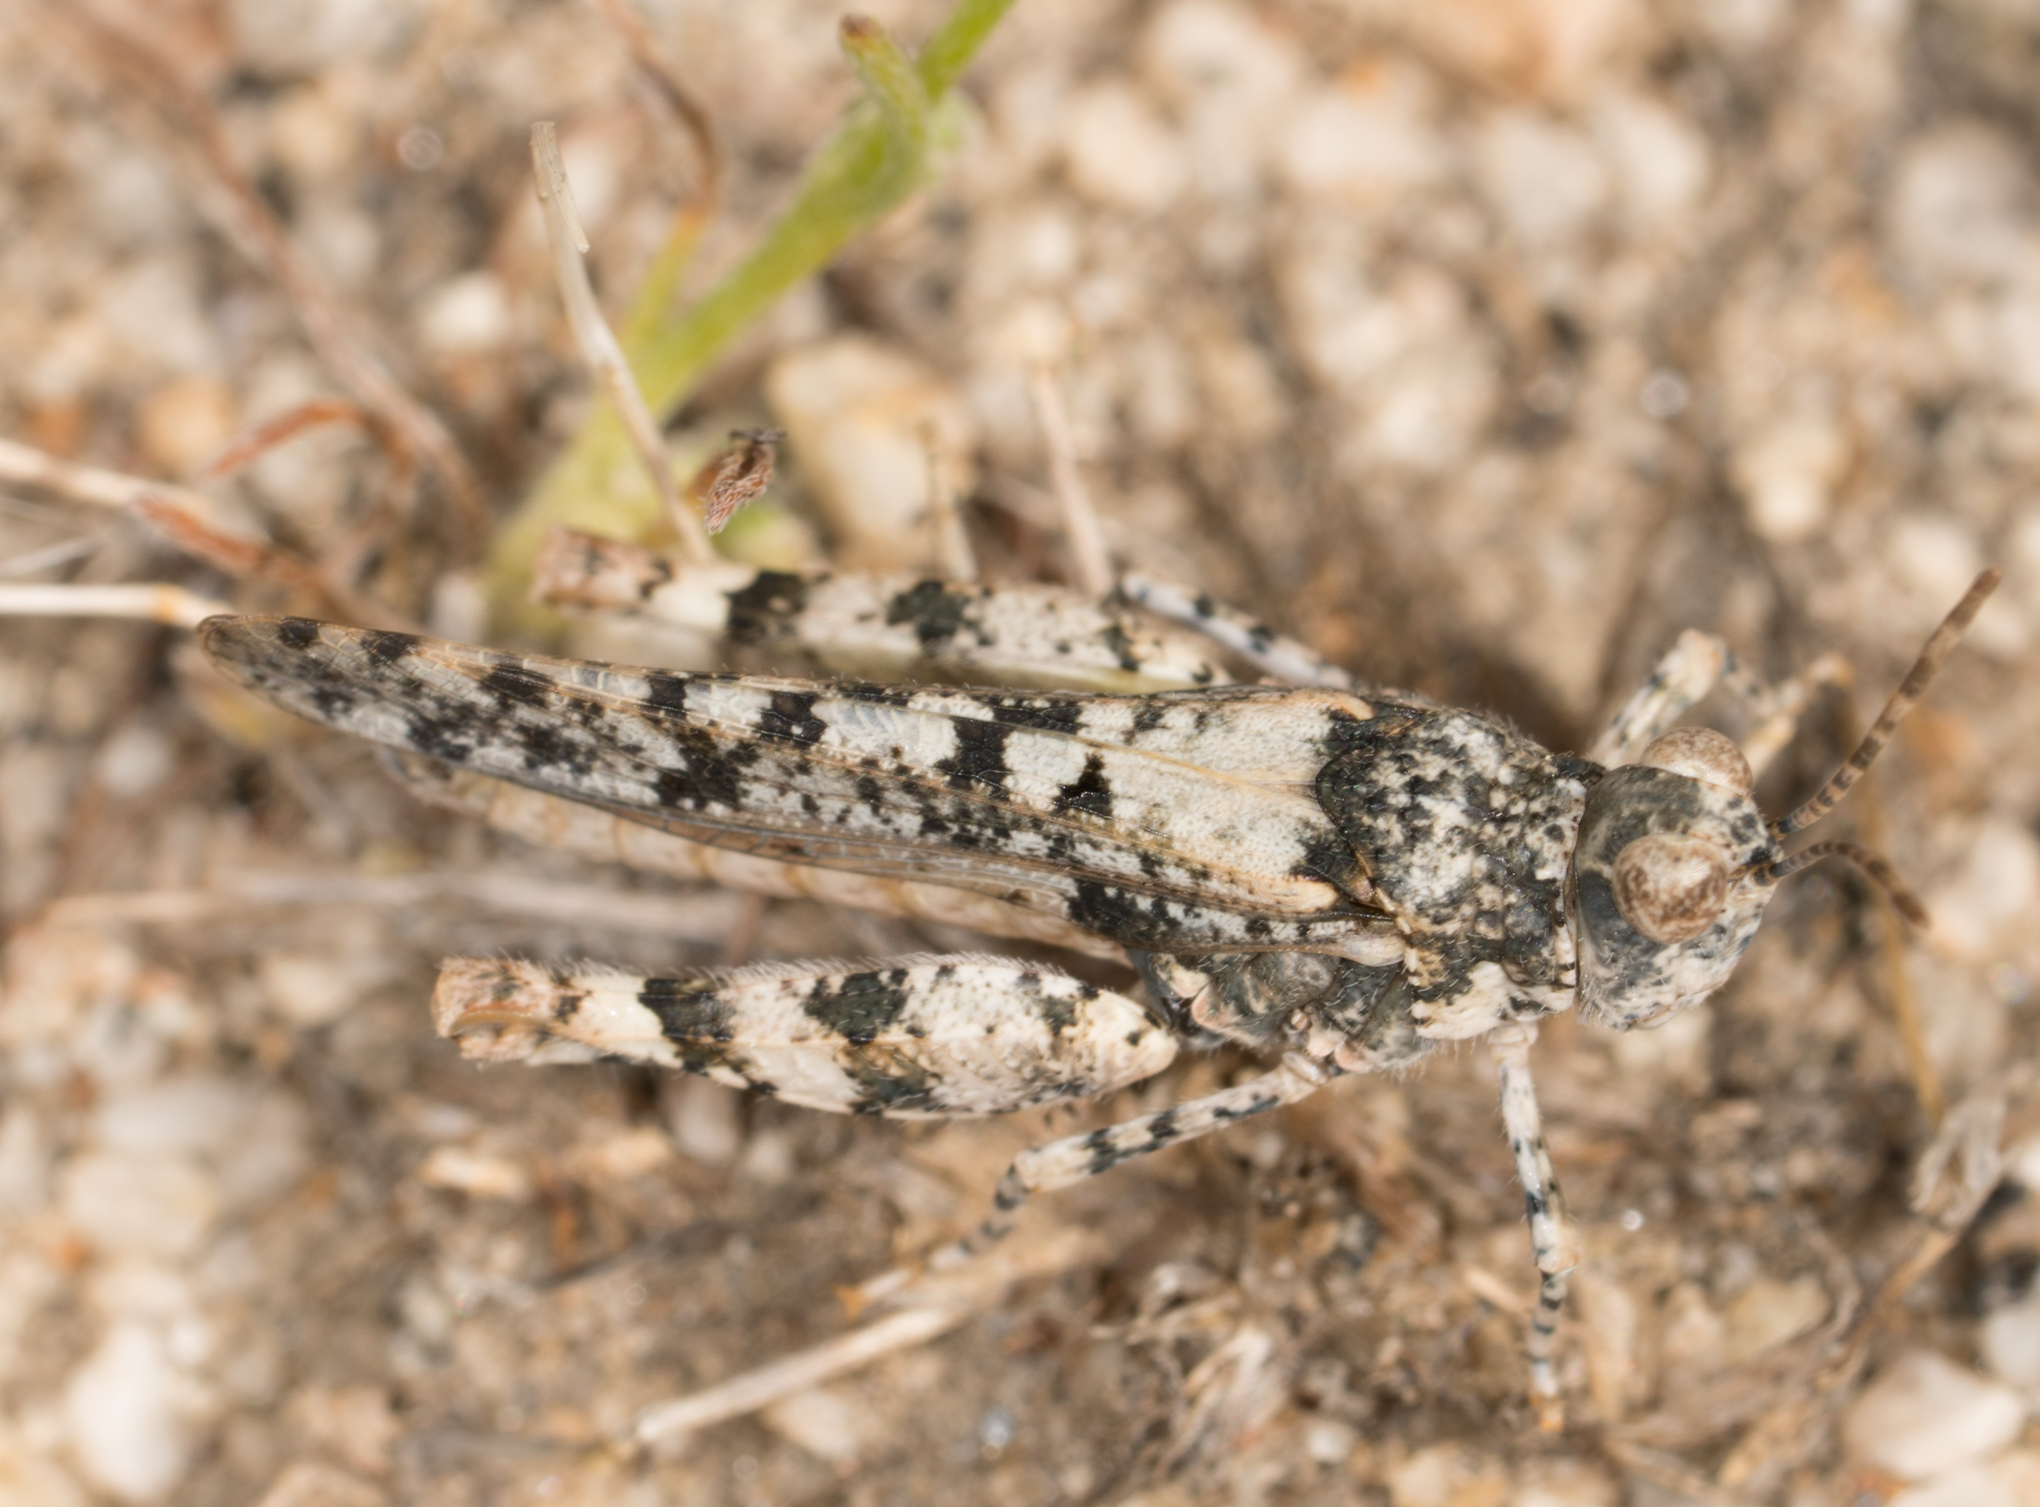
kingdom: Animalia
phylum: Arthropoda
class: Insecta
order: Orthoptera
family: Acrididae
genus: Cibolacris
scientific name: Cibolacris parviceps
